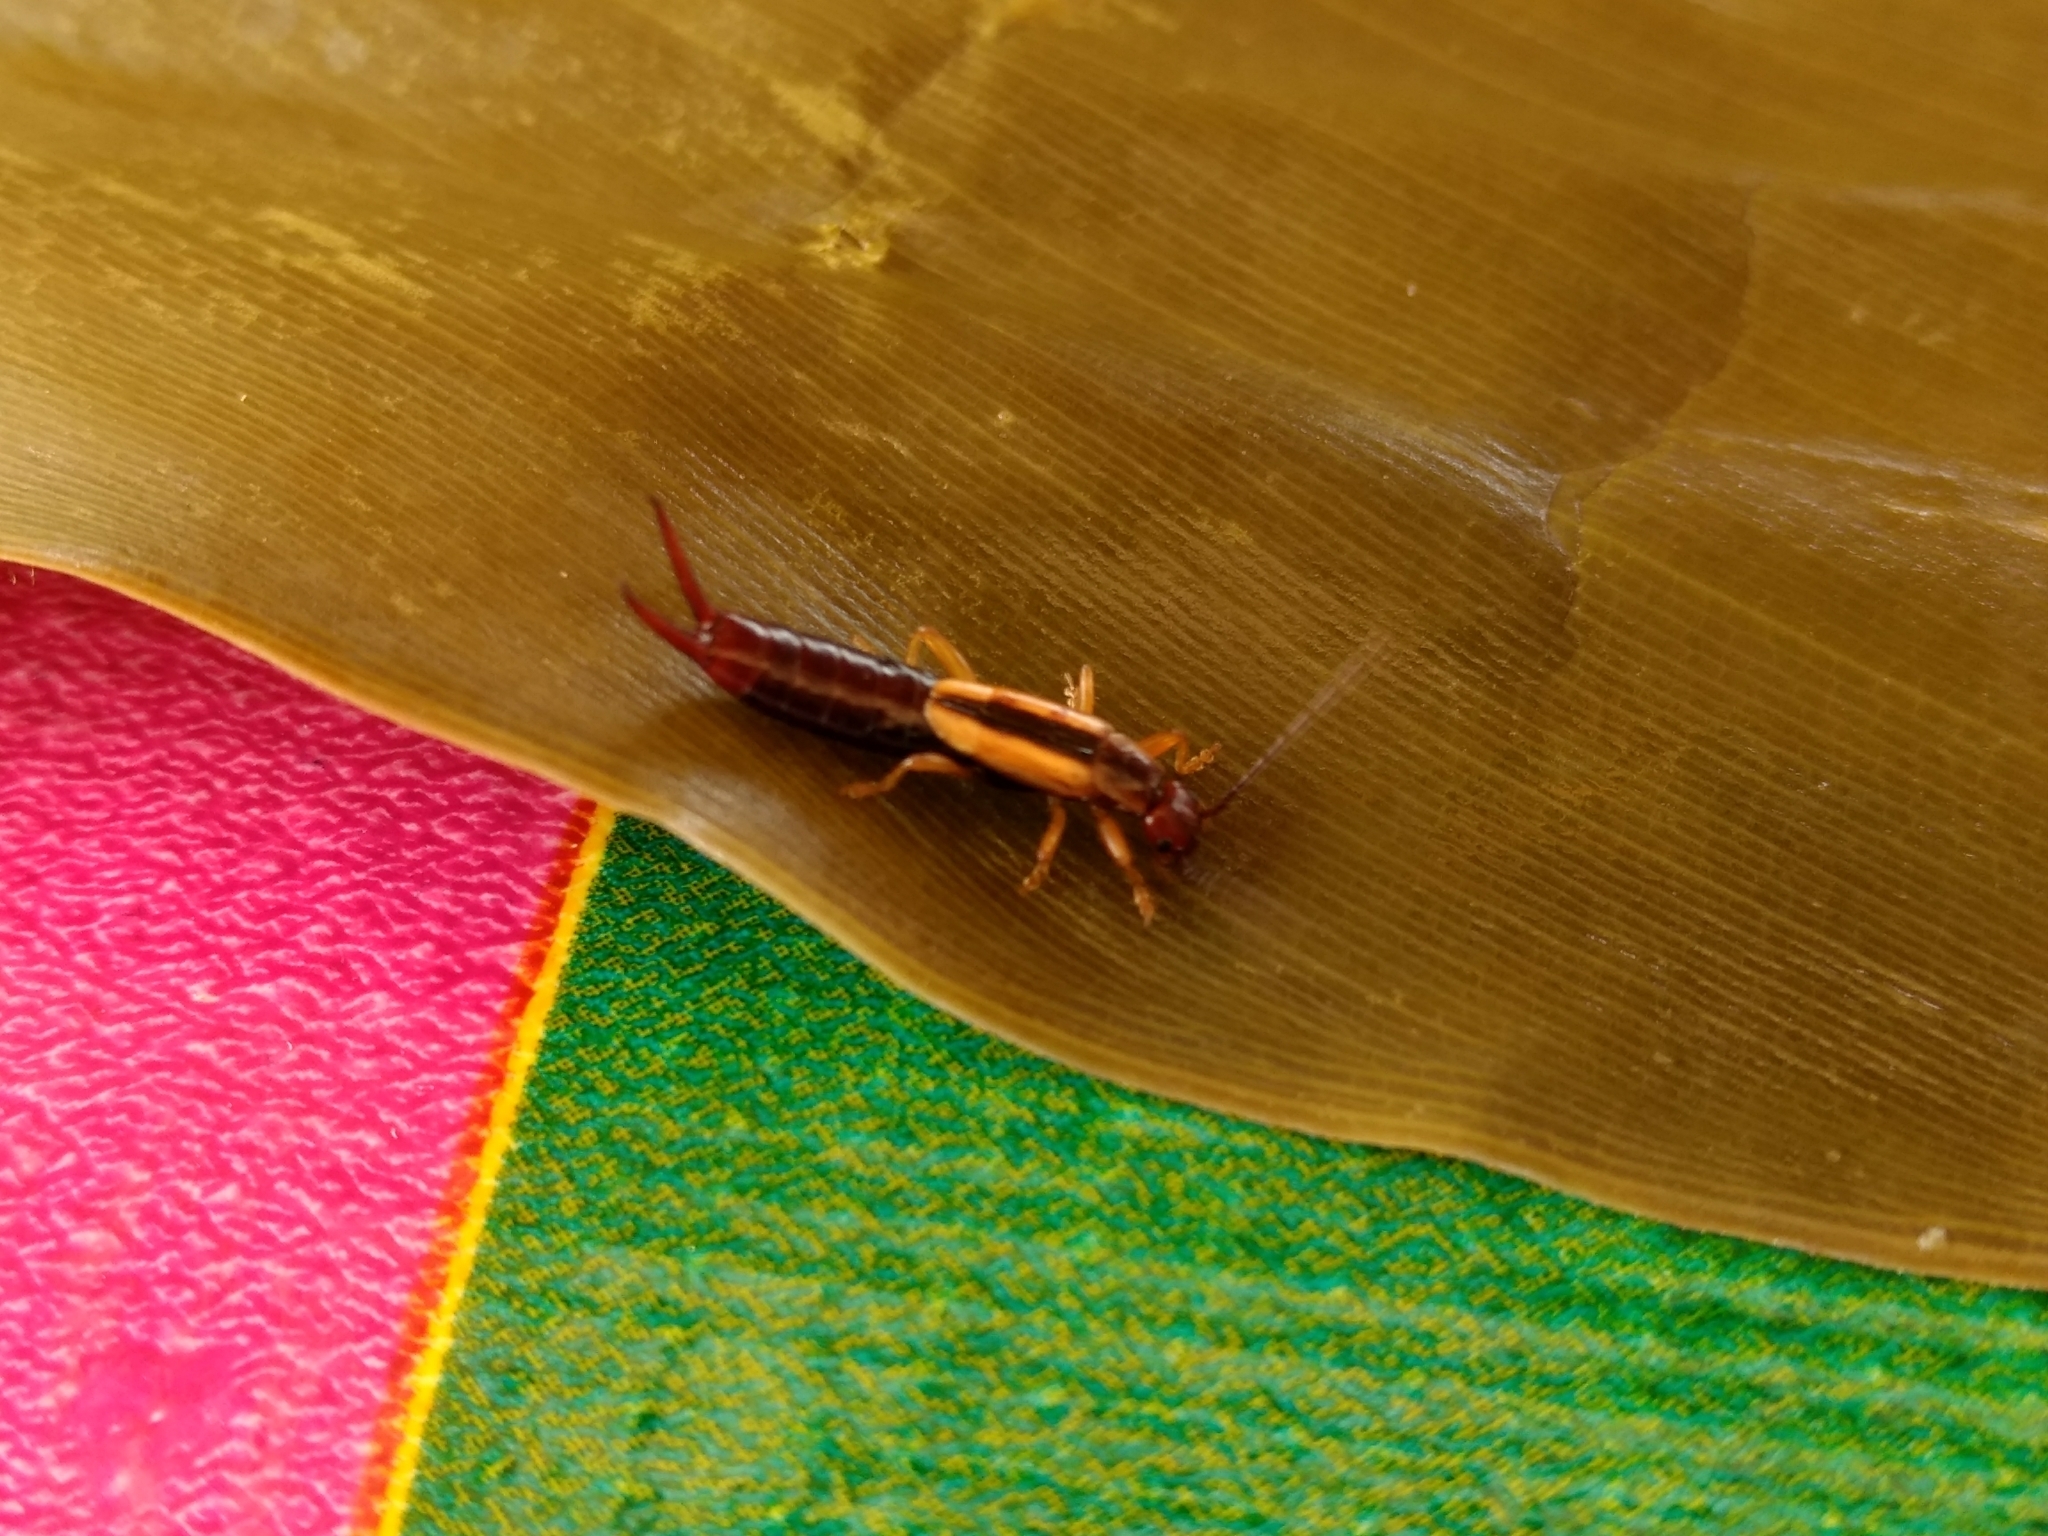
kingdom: Animalia
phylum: Arthropoda
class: Insecta
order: Dermaptera
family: Forficulidae
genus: Doru
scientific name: Doru taeniatum
